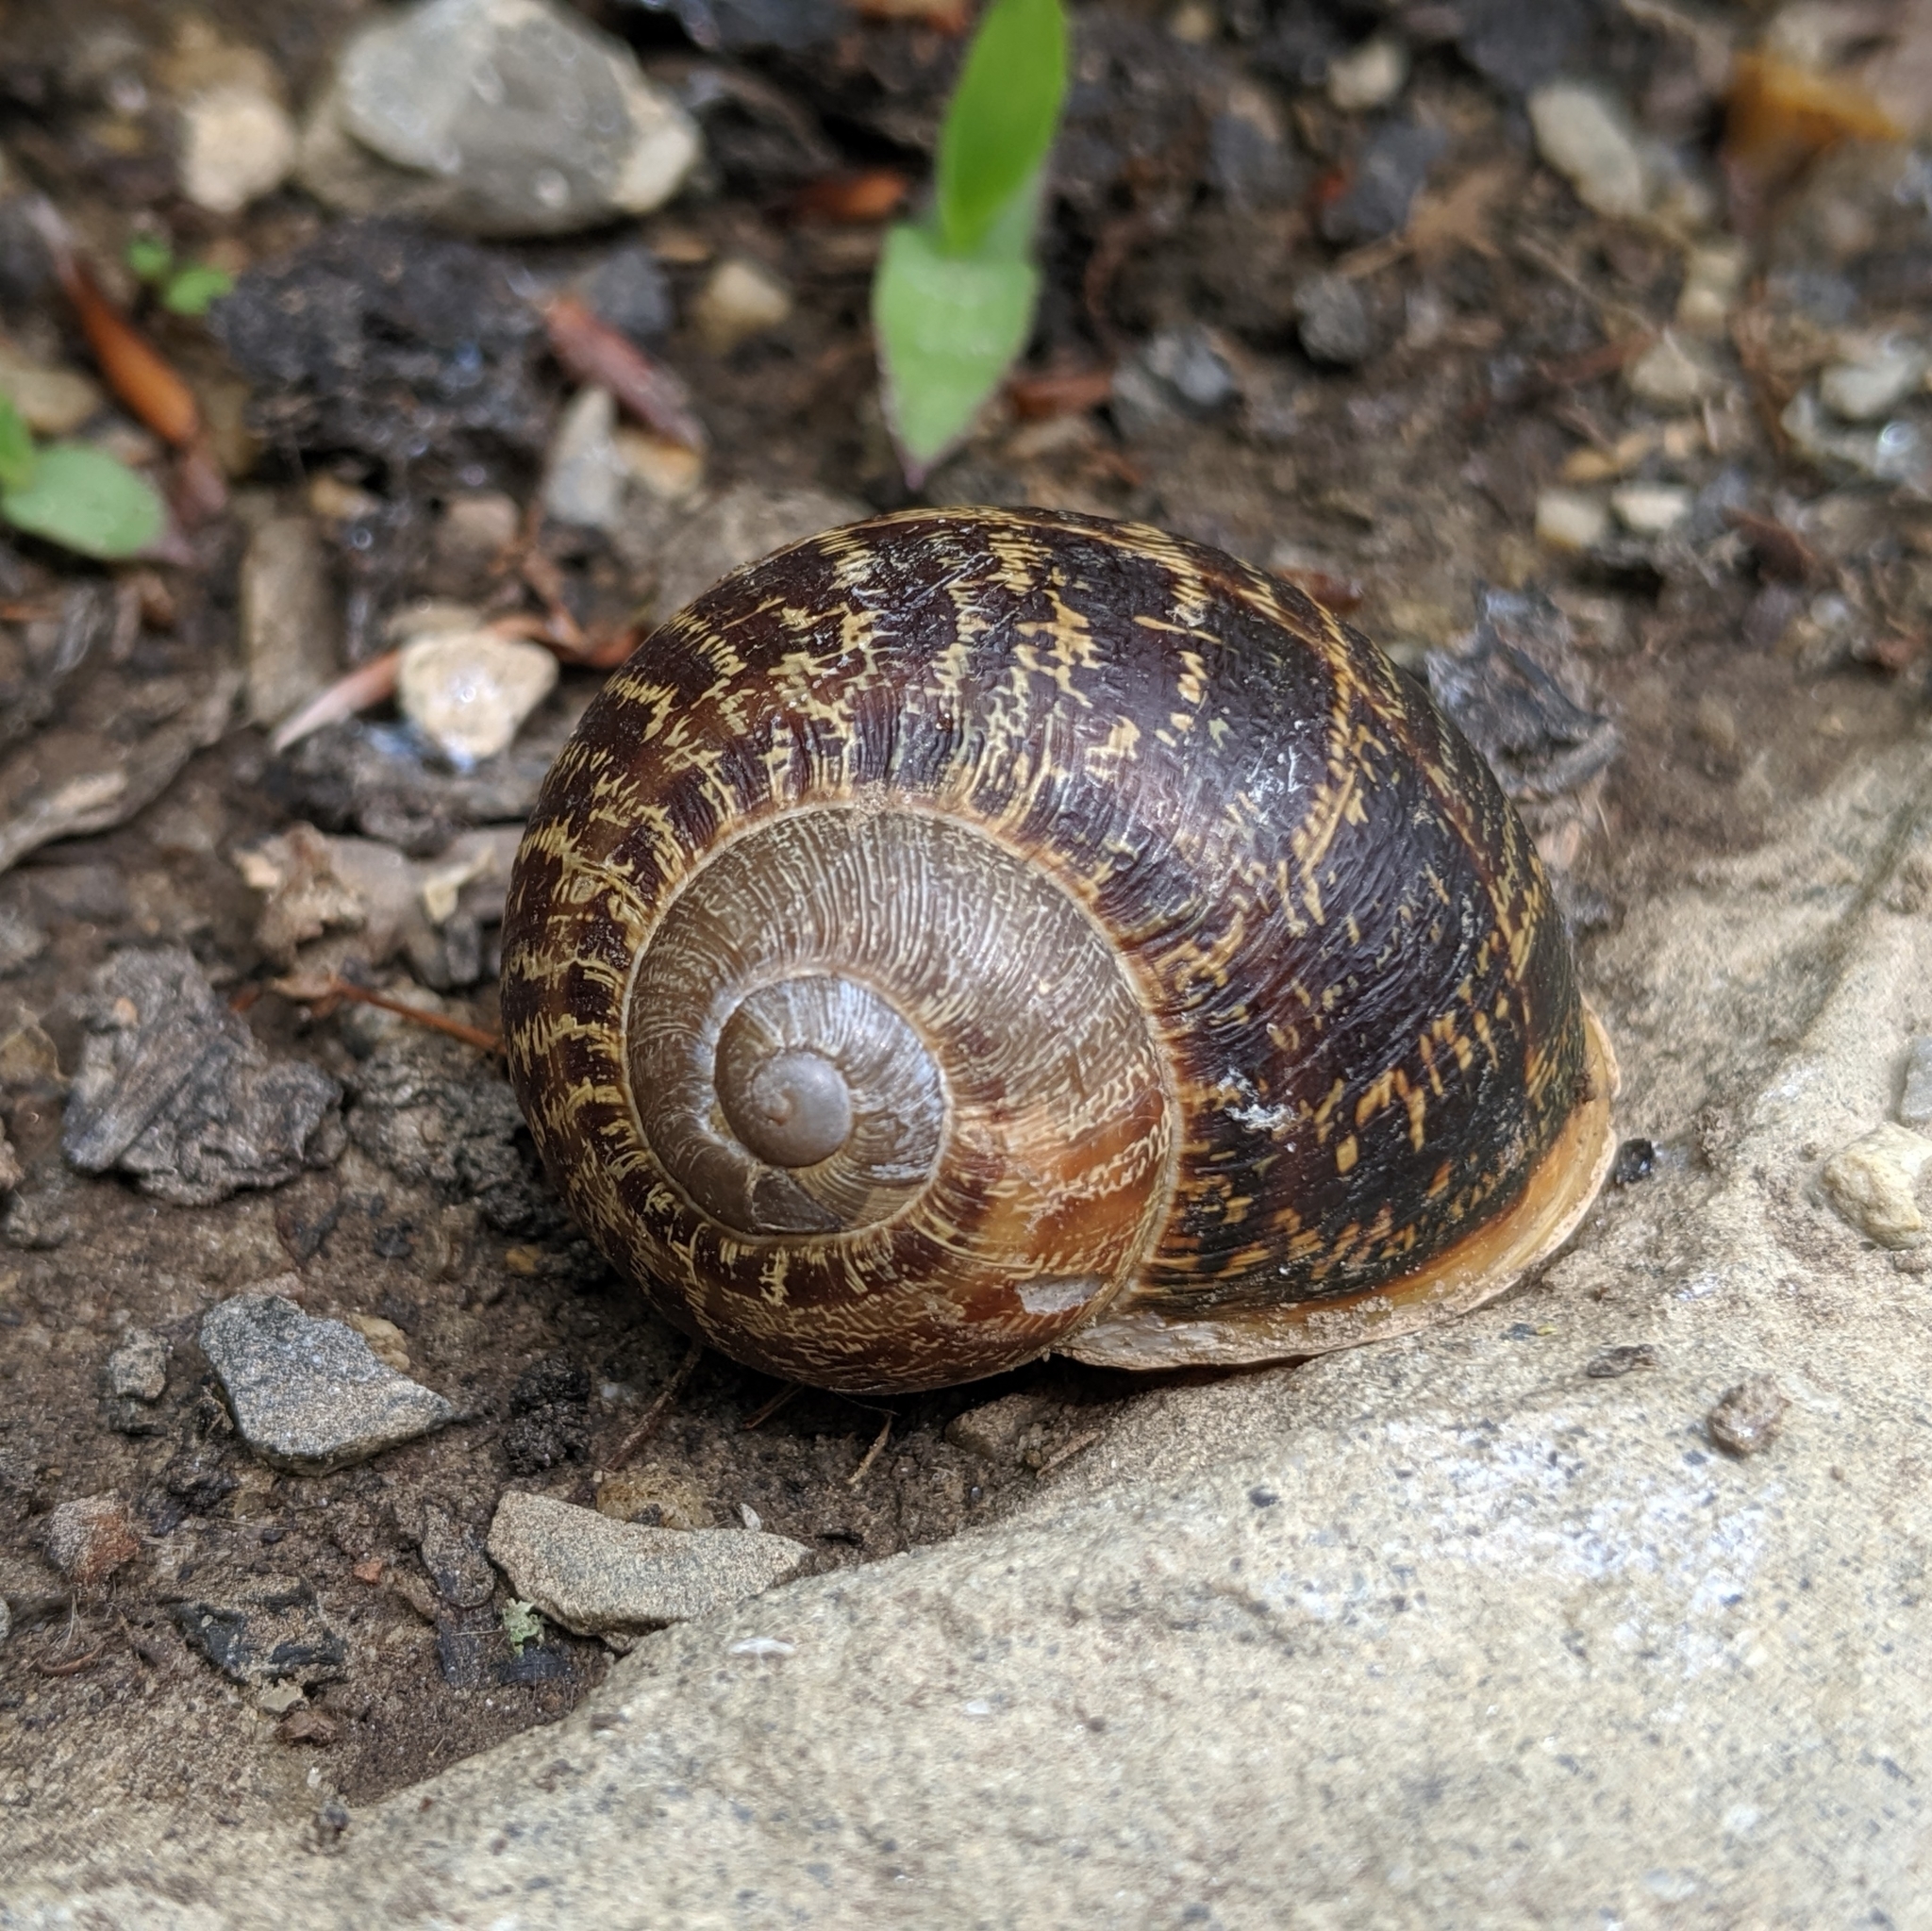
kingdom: Animalia
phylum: Mollusca
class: Gastropoda
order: Stylommatophora
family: Helicidae
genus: Cornu
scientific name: Cornu aspersum
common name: Brown garden snail
